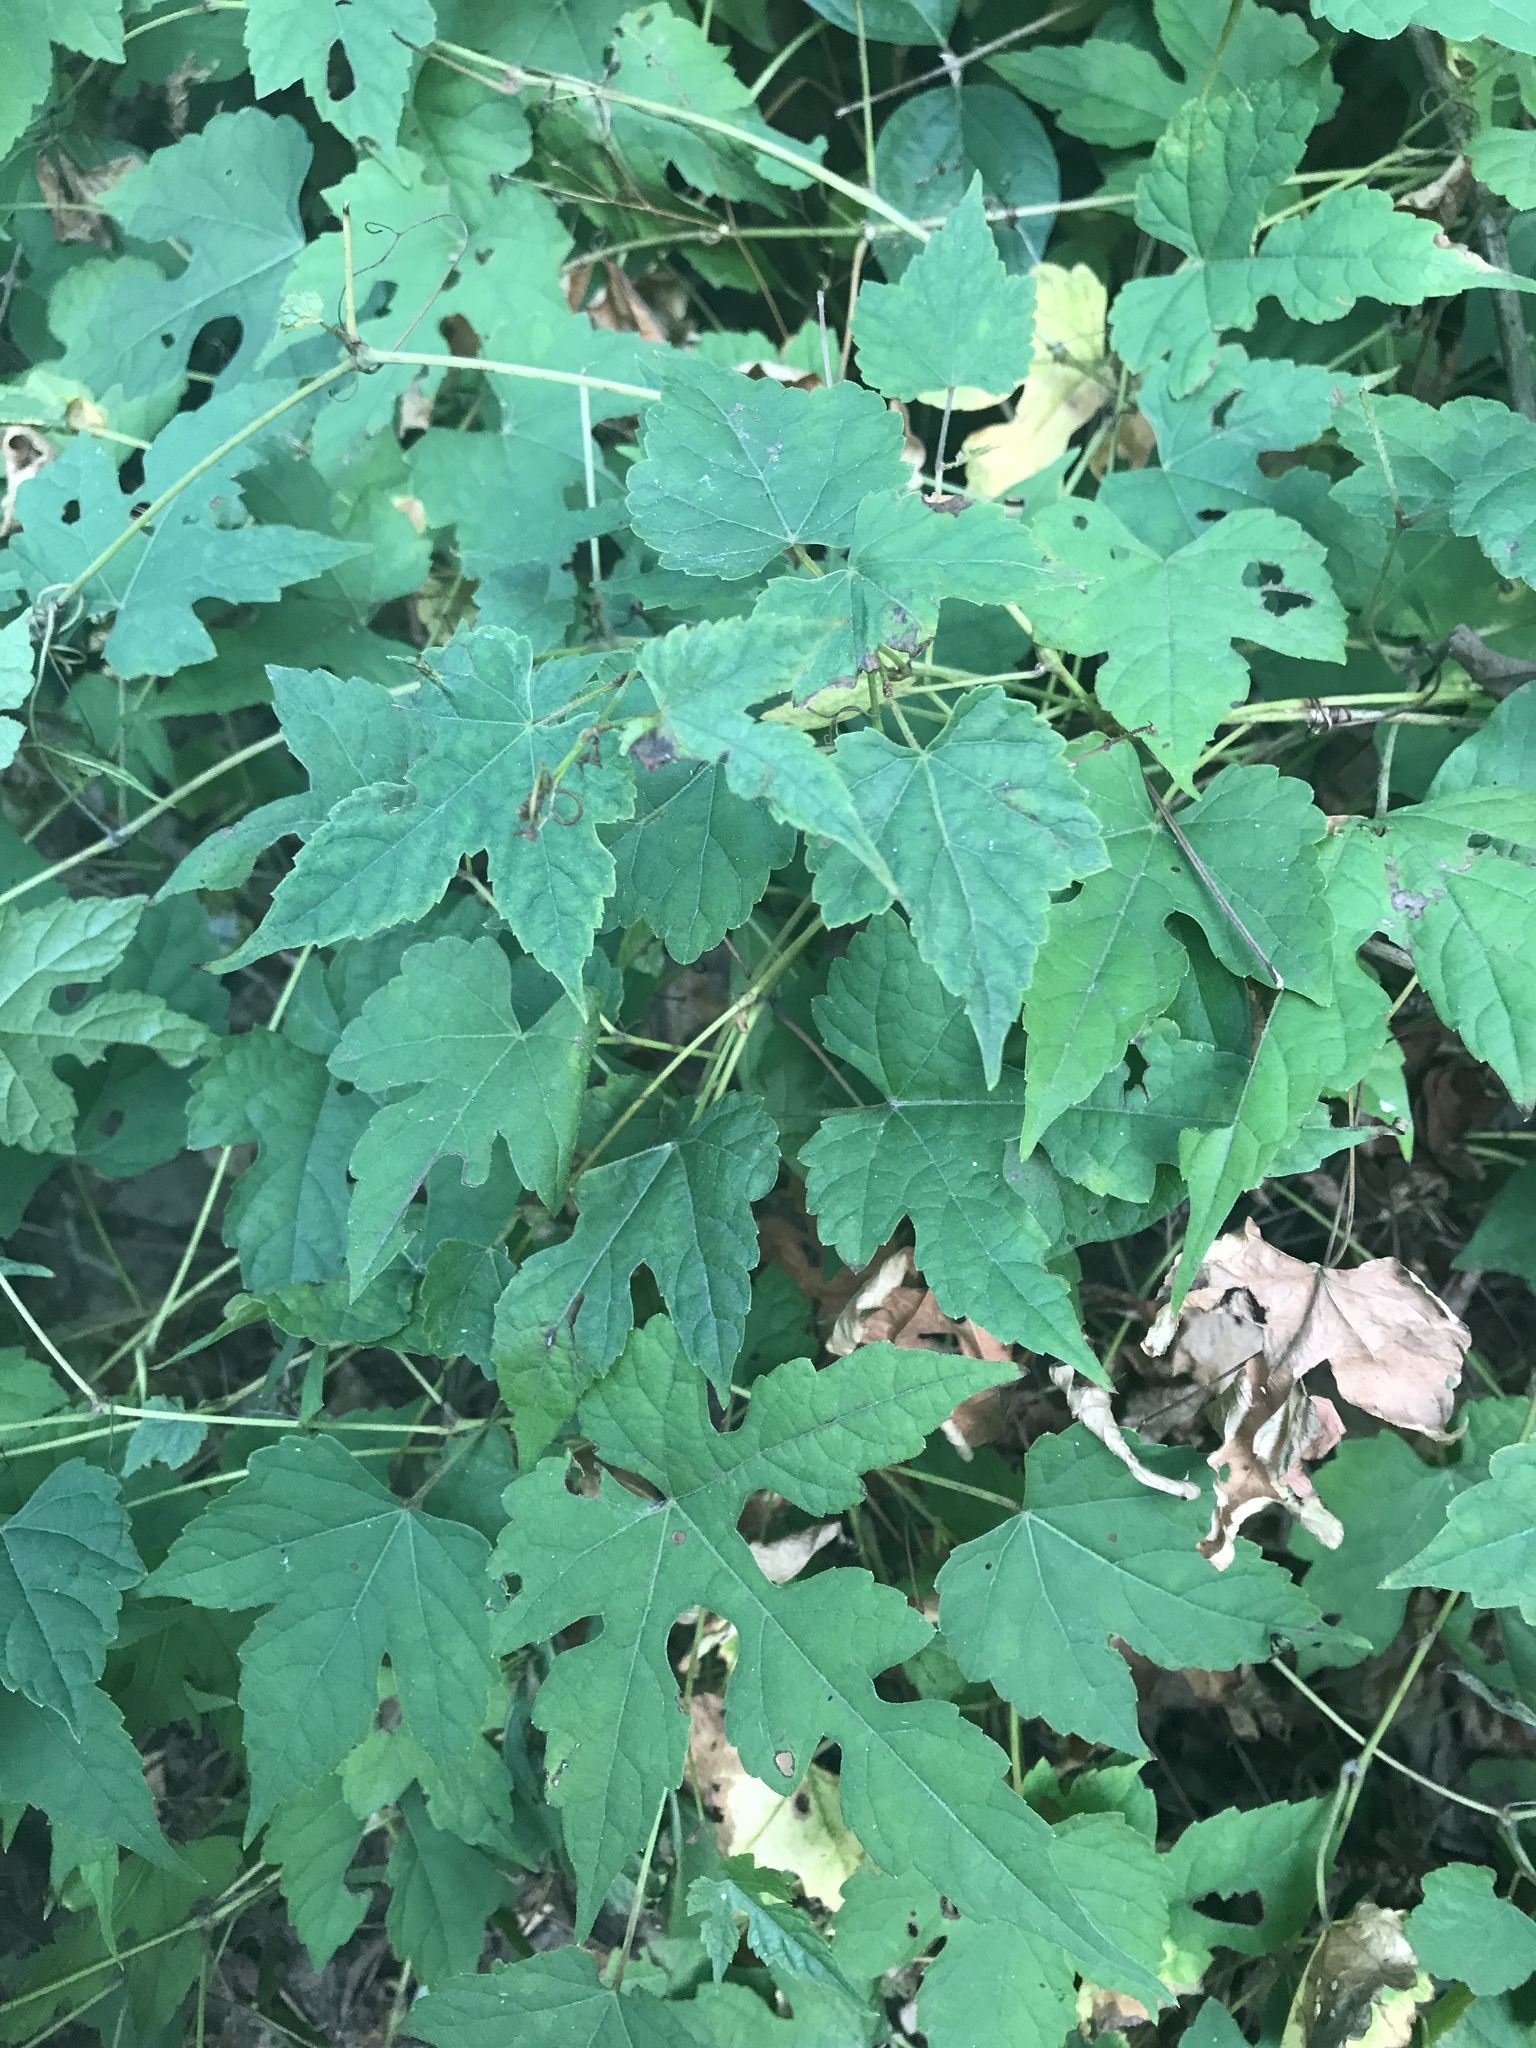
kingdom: Plantae
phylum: Tracheophyta
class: Magnoliopsida
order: Vitales
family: Vitaceae
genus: Ampelopsis
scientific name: Ampelopsis glandulosa
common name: Amur peppervine
